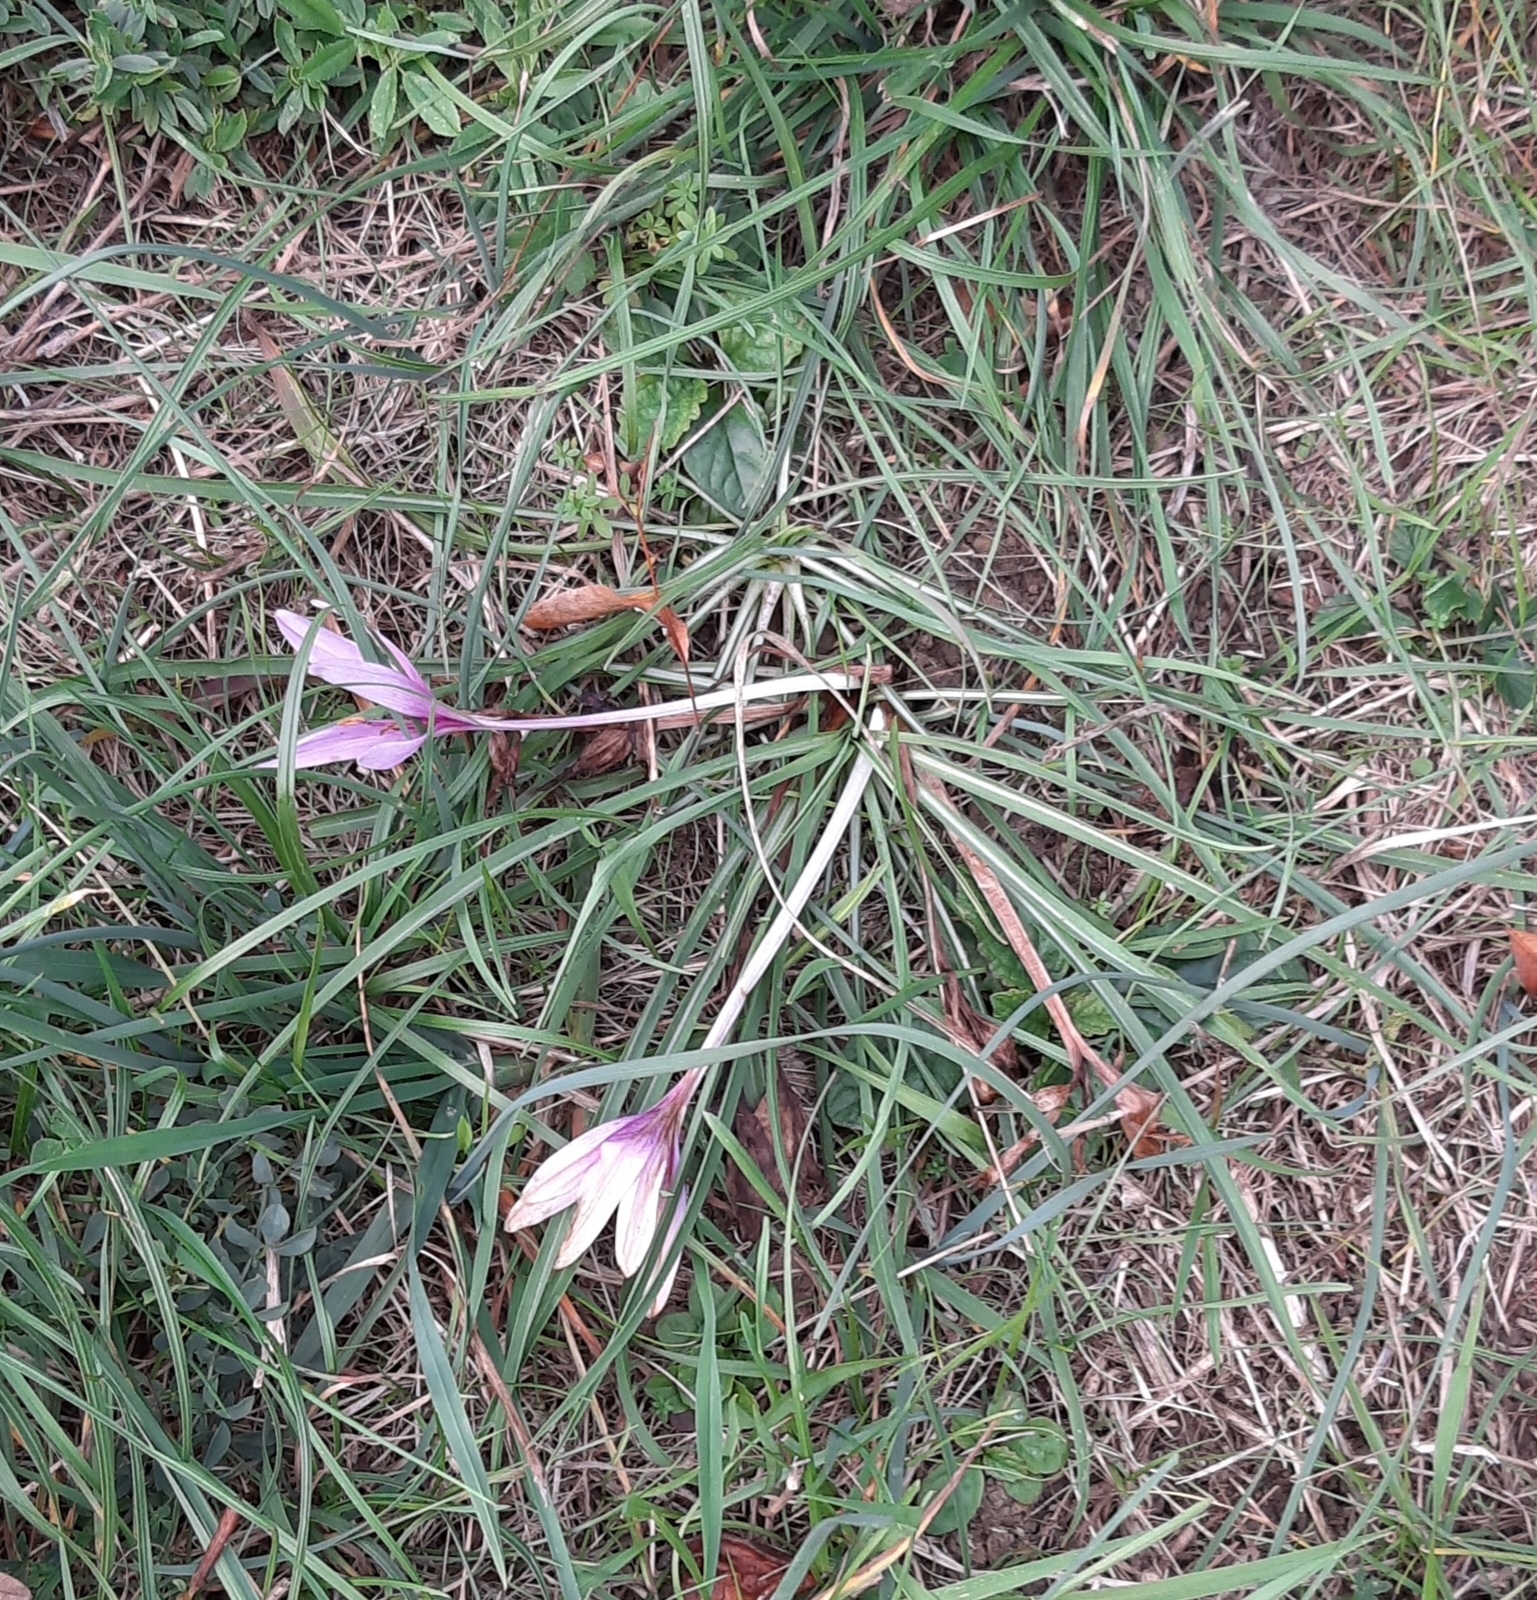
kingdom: Plantae
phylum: Tracheophyta
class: Liliopsida
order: Liliales
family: Colchicaceae
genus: Colchicum
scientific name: Colchicum autumnale
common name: Autumn crocus
